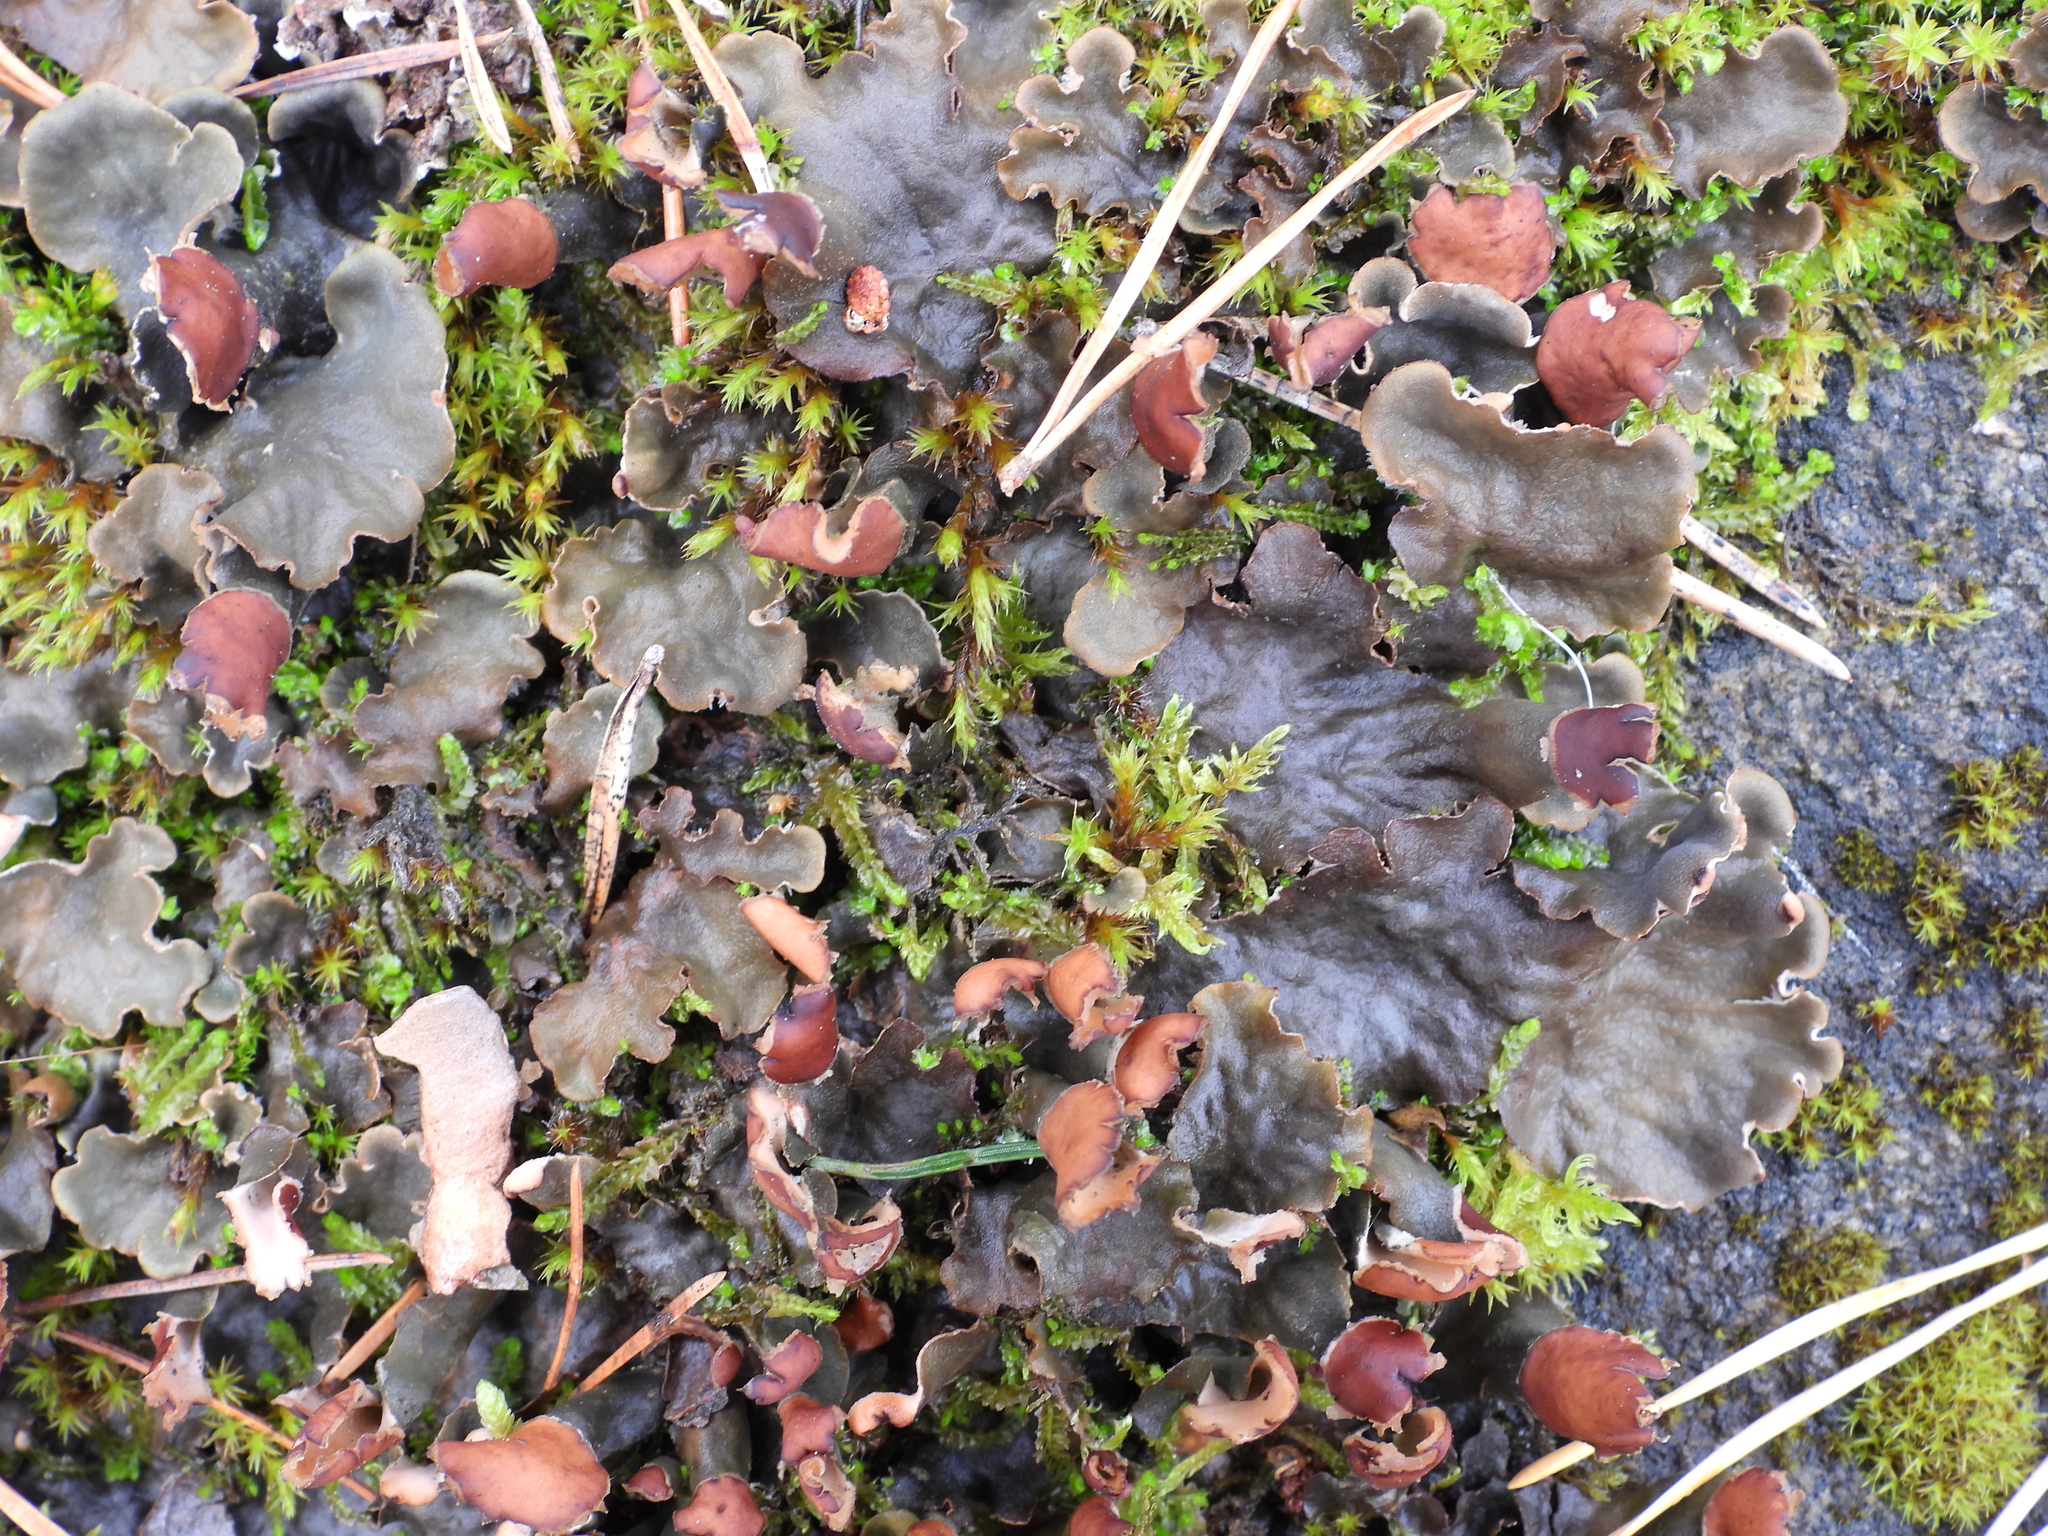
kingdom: Fungi
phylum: Ascomycota
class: Lecanoromycetes
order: Peltigerales
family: Peltigeraceae
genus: Peltigera
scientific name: Peltigera polydactylon
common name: Many-fruited pelt lichen
